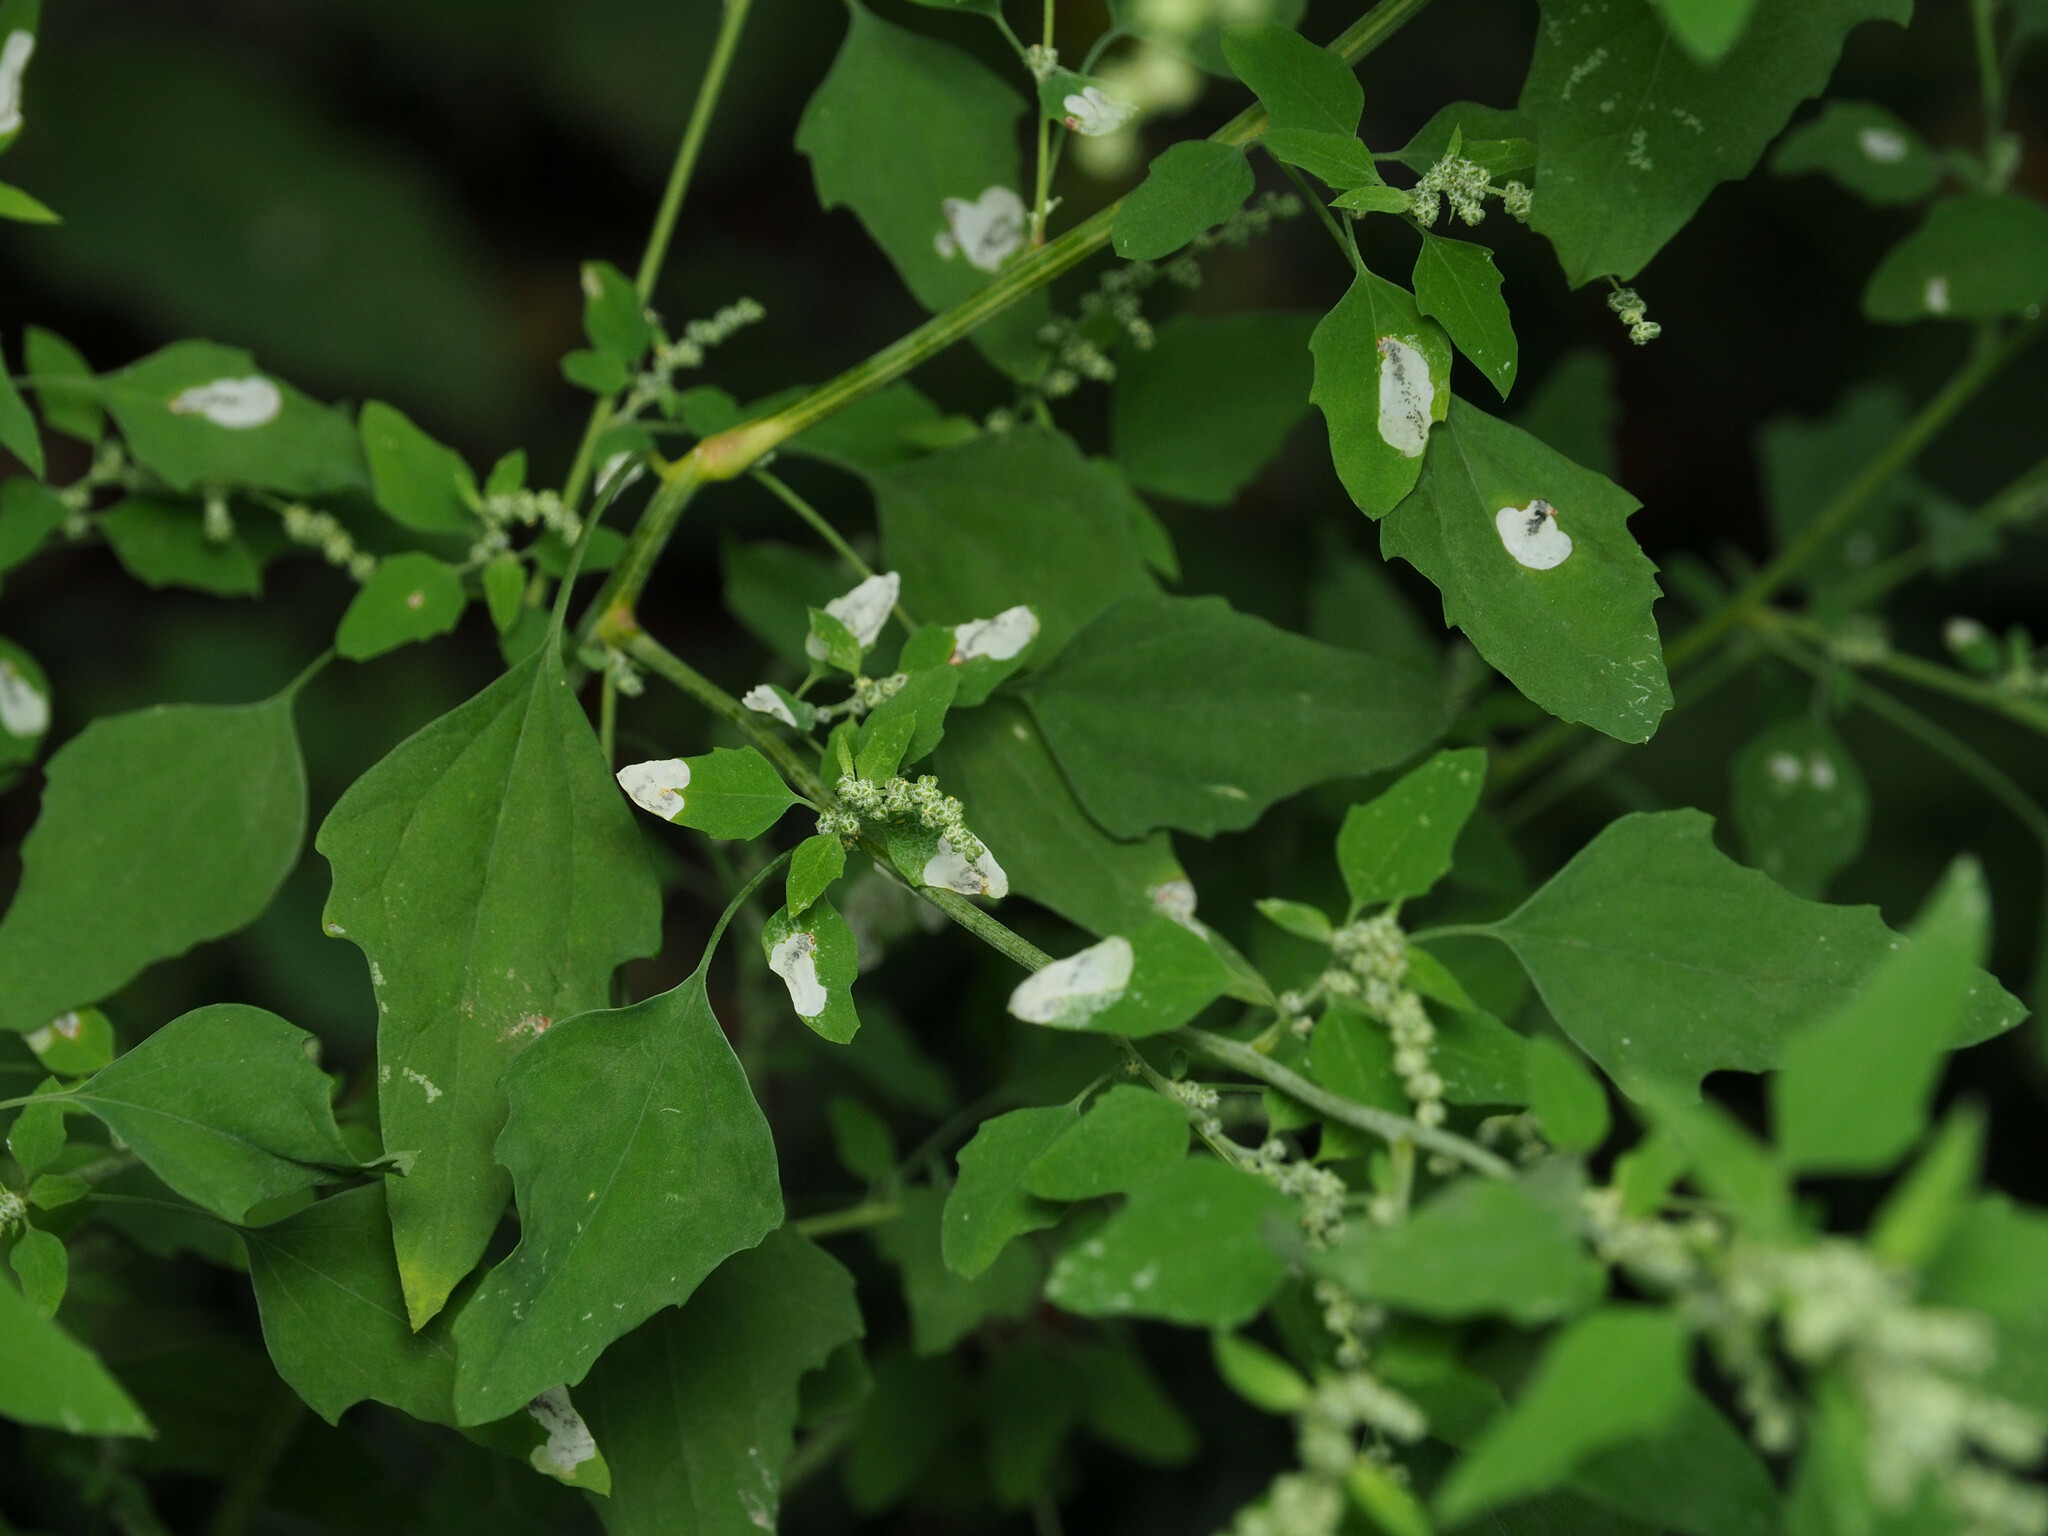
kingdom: Animalia
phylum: Arthropoda
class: Insecta
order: Lepidoptera
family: Gelechiidae
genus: Chrysoesthia
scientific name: Chrysoesthia sexguttella
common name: Moth
